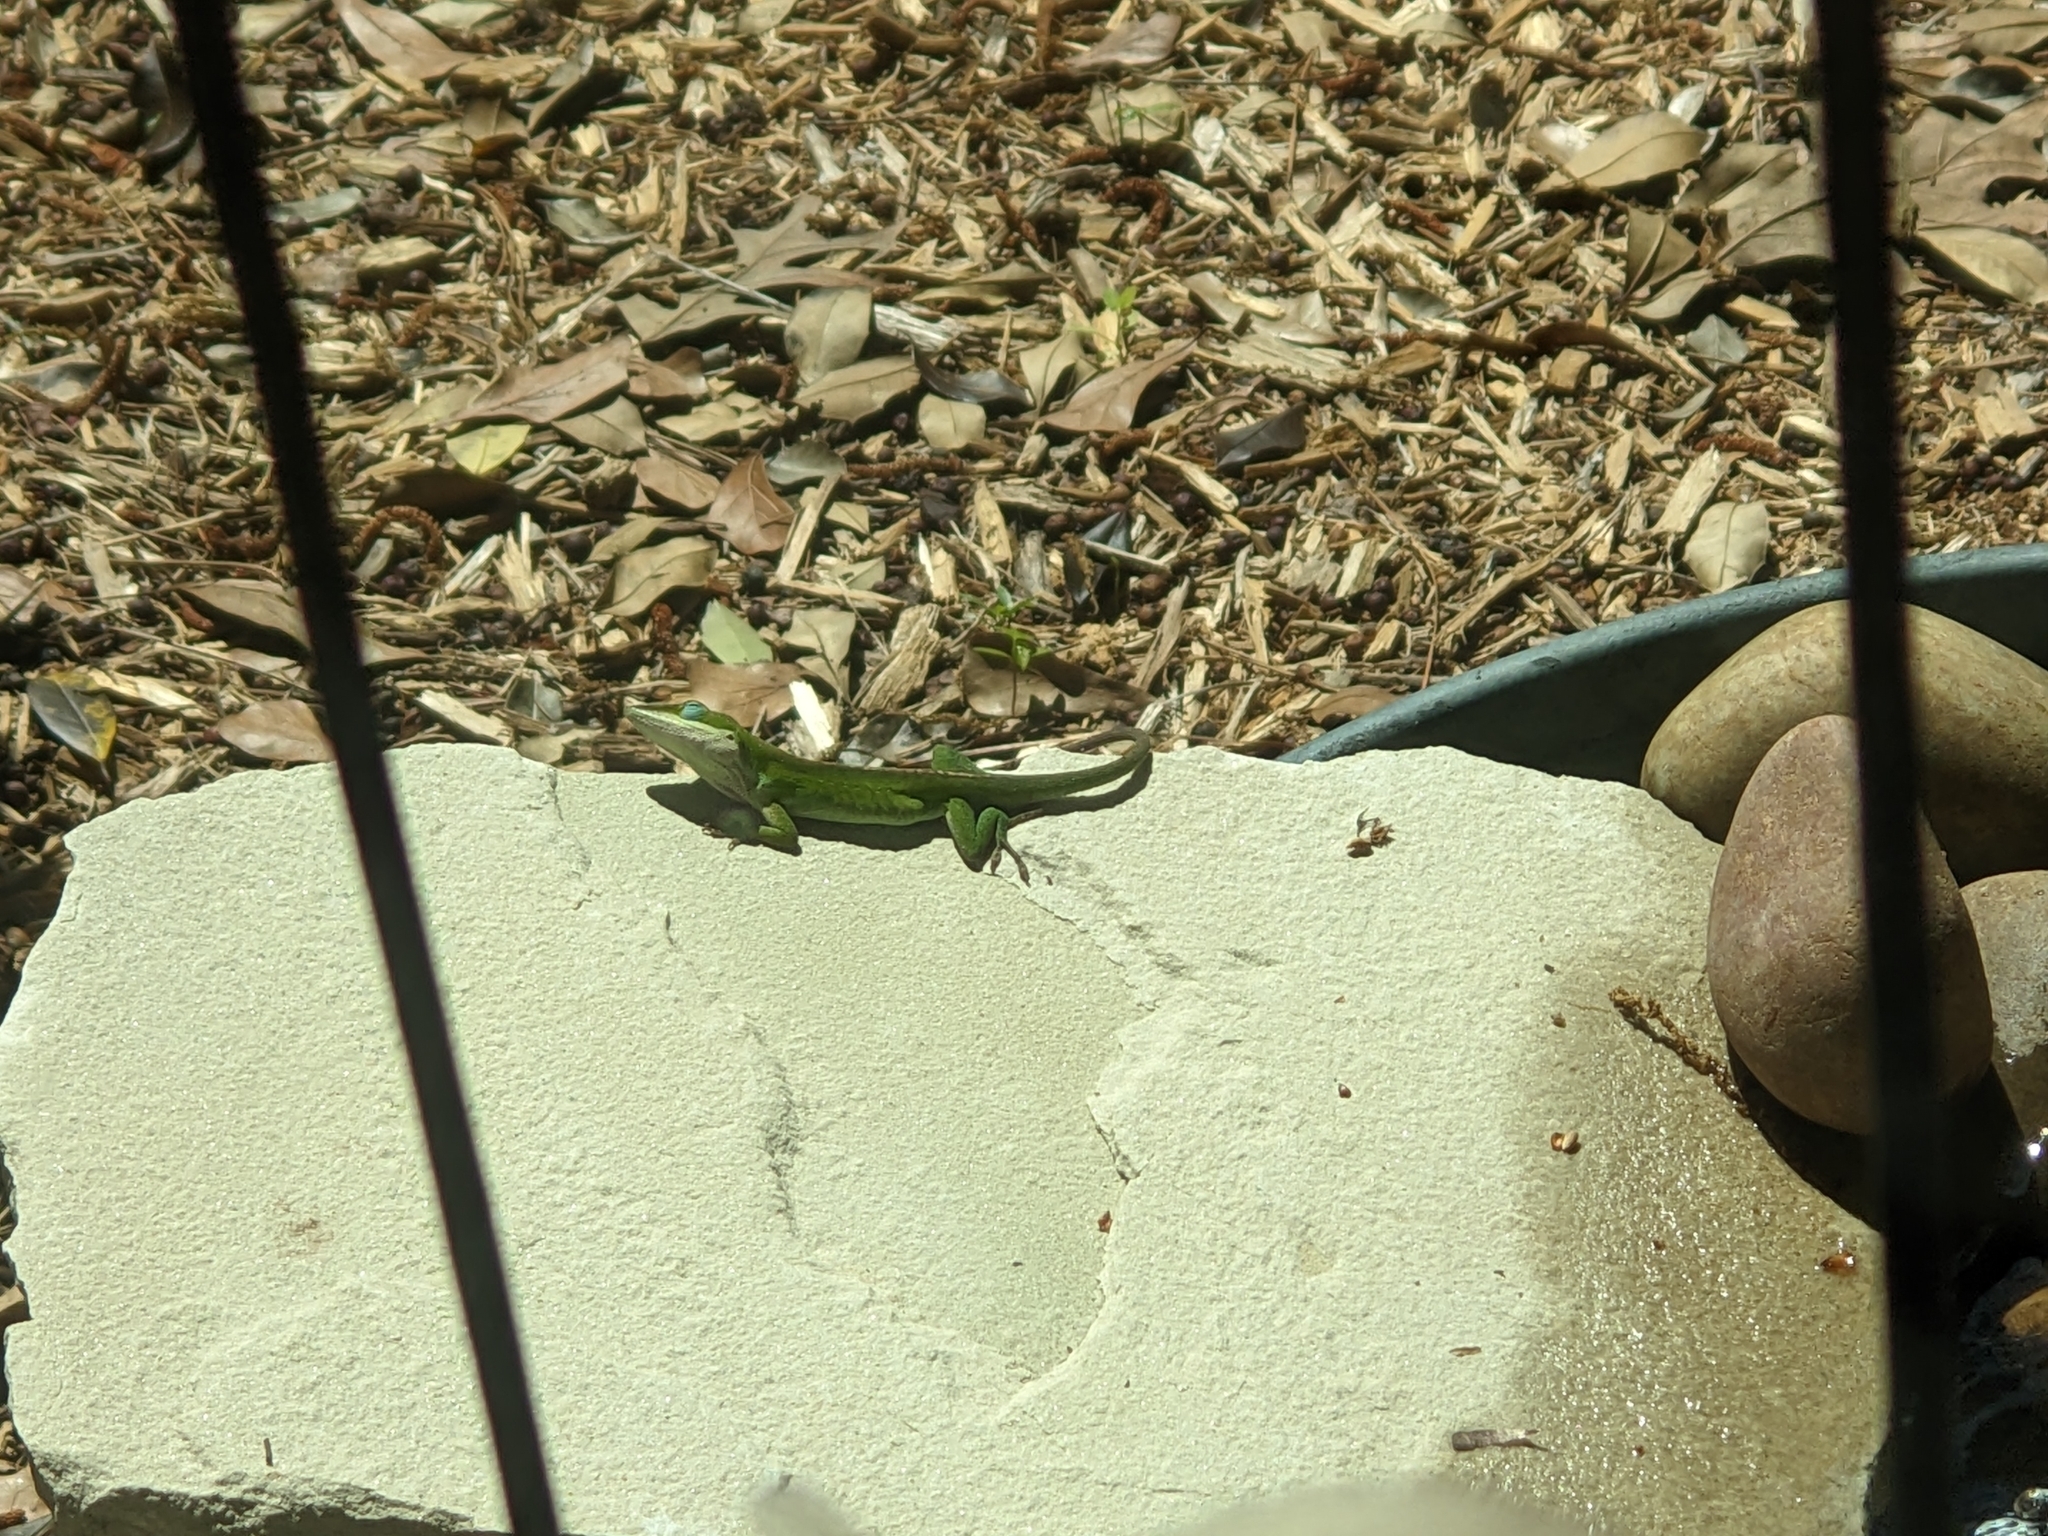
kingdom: Animalia
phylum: Chordata
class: Squamata
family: Dactyloidae
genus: Anolis
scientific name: Anolis carolinensis
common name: Green anole
